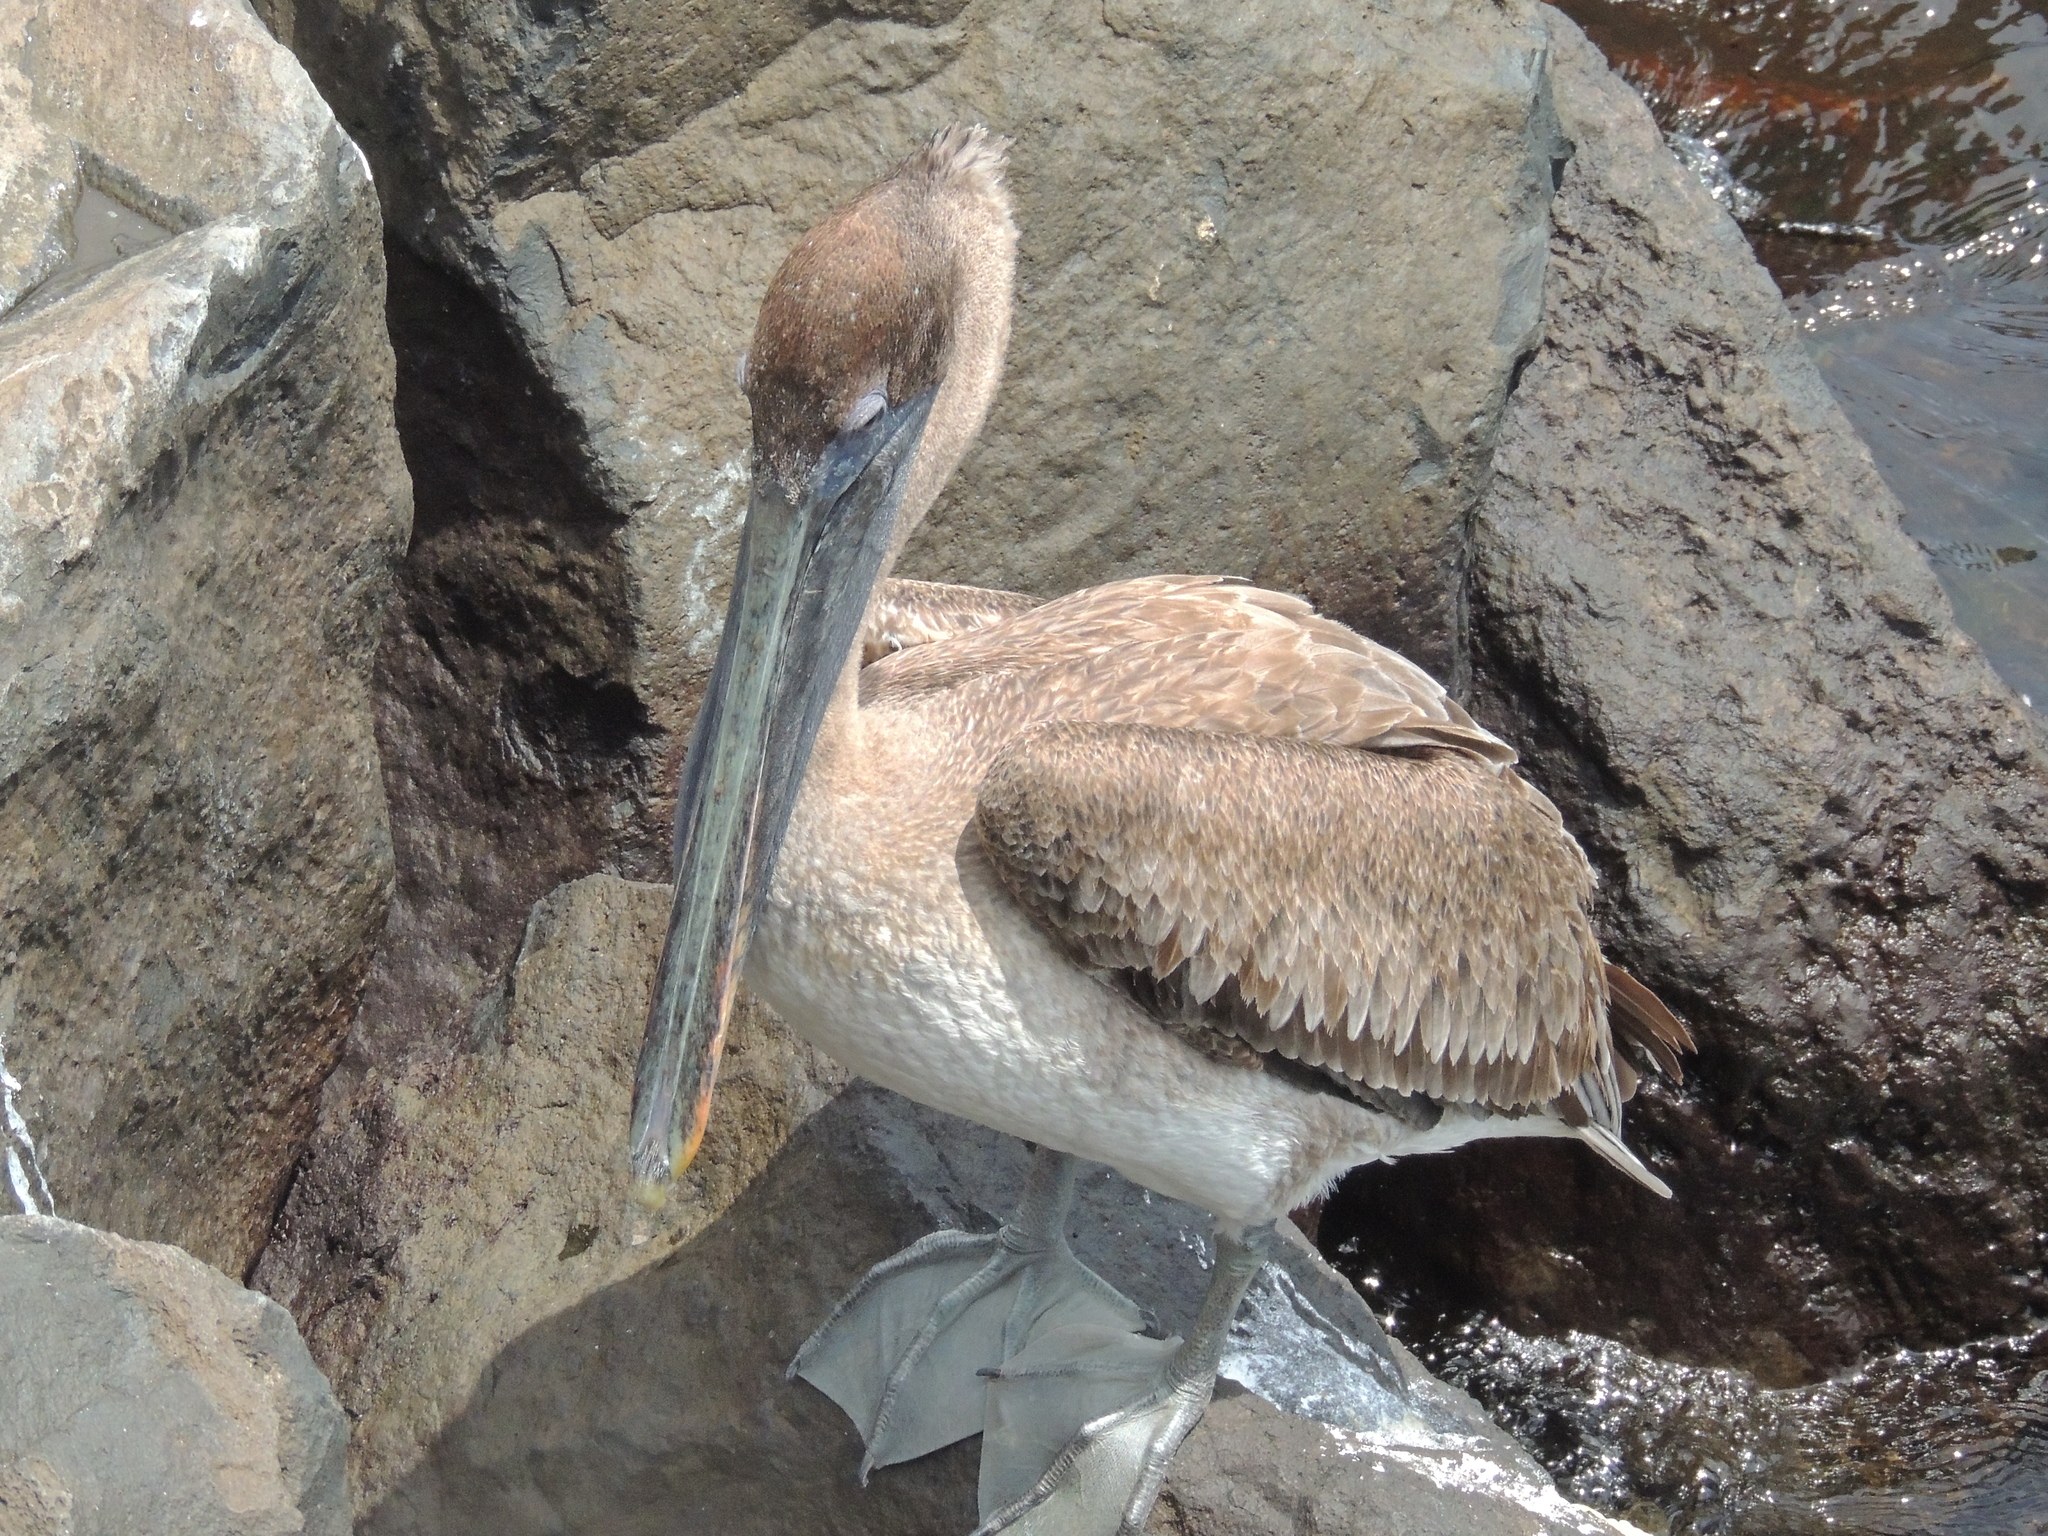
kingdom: Animalia
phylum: Chordata
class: Aves
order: Pelecaniformes
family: Pelecanidae
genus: Pelecanus
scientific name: Pelecanus occidentalis
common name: Brown pelican
